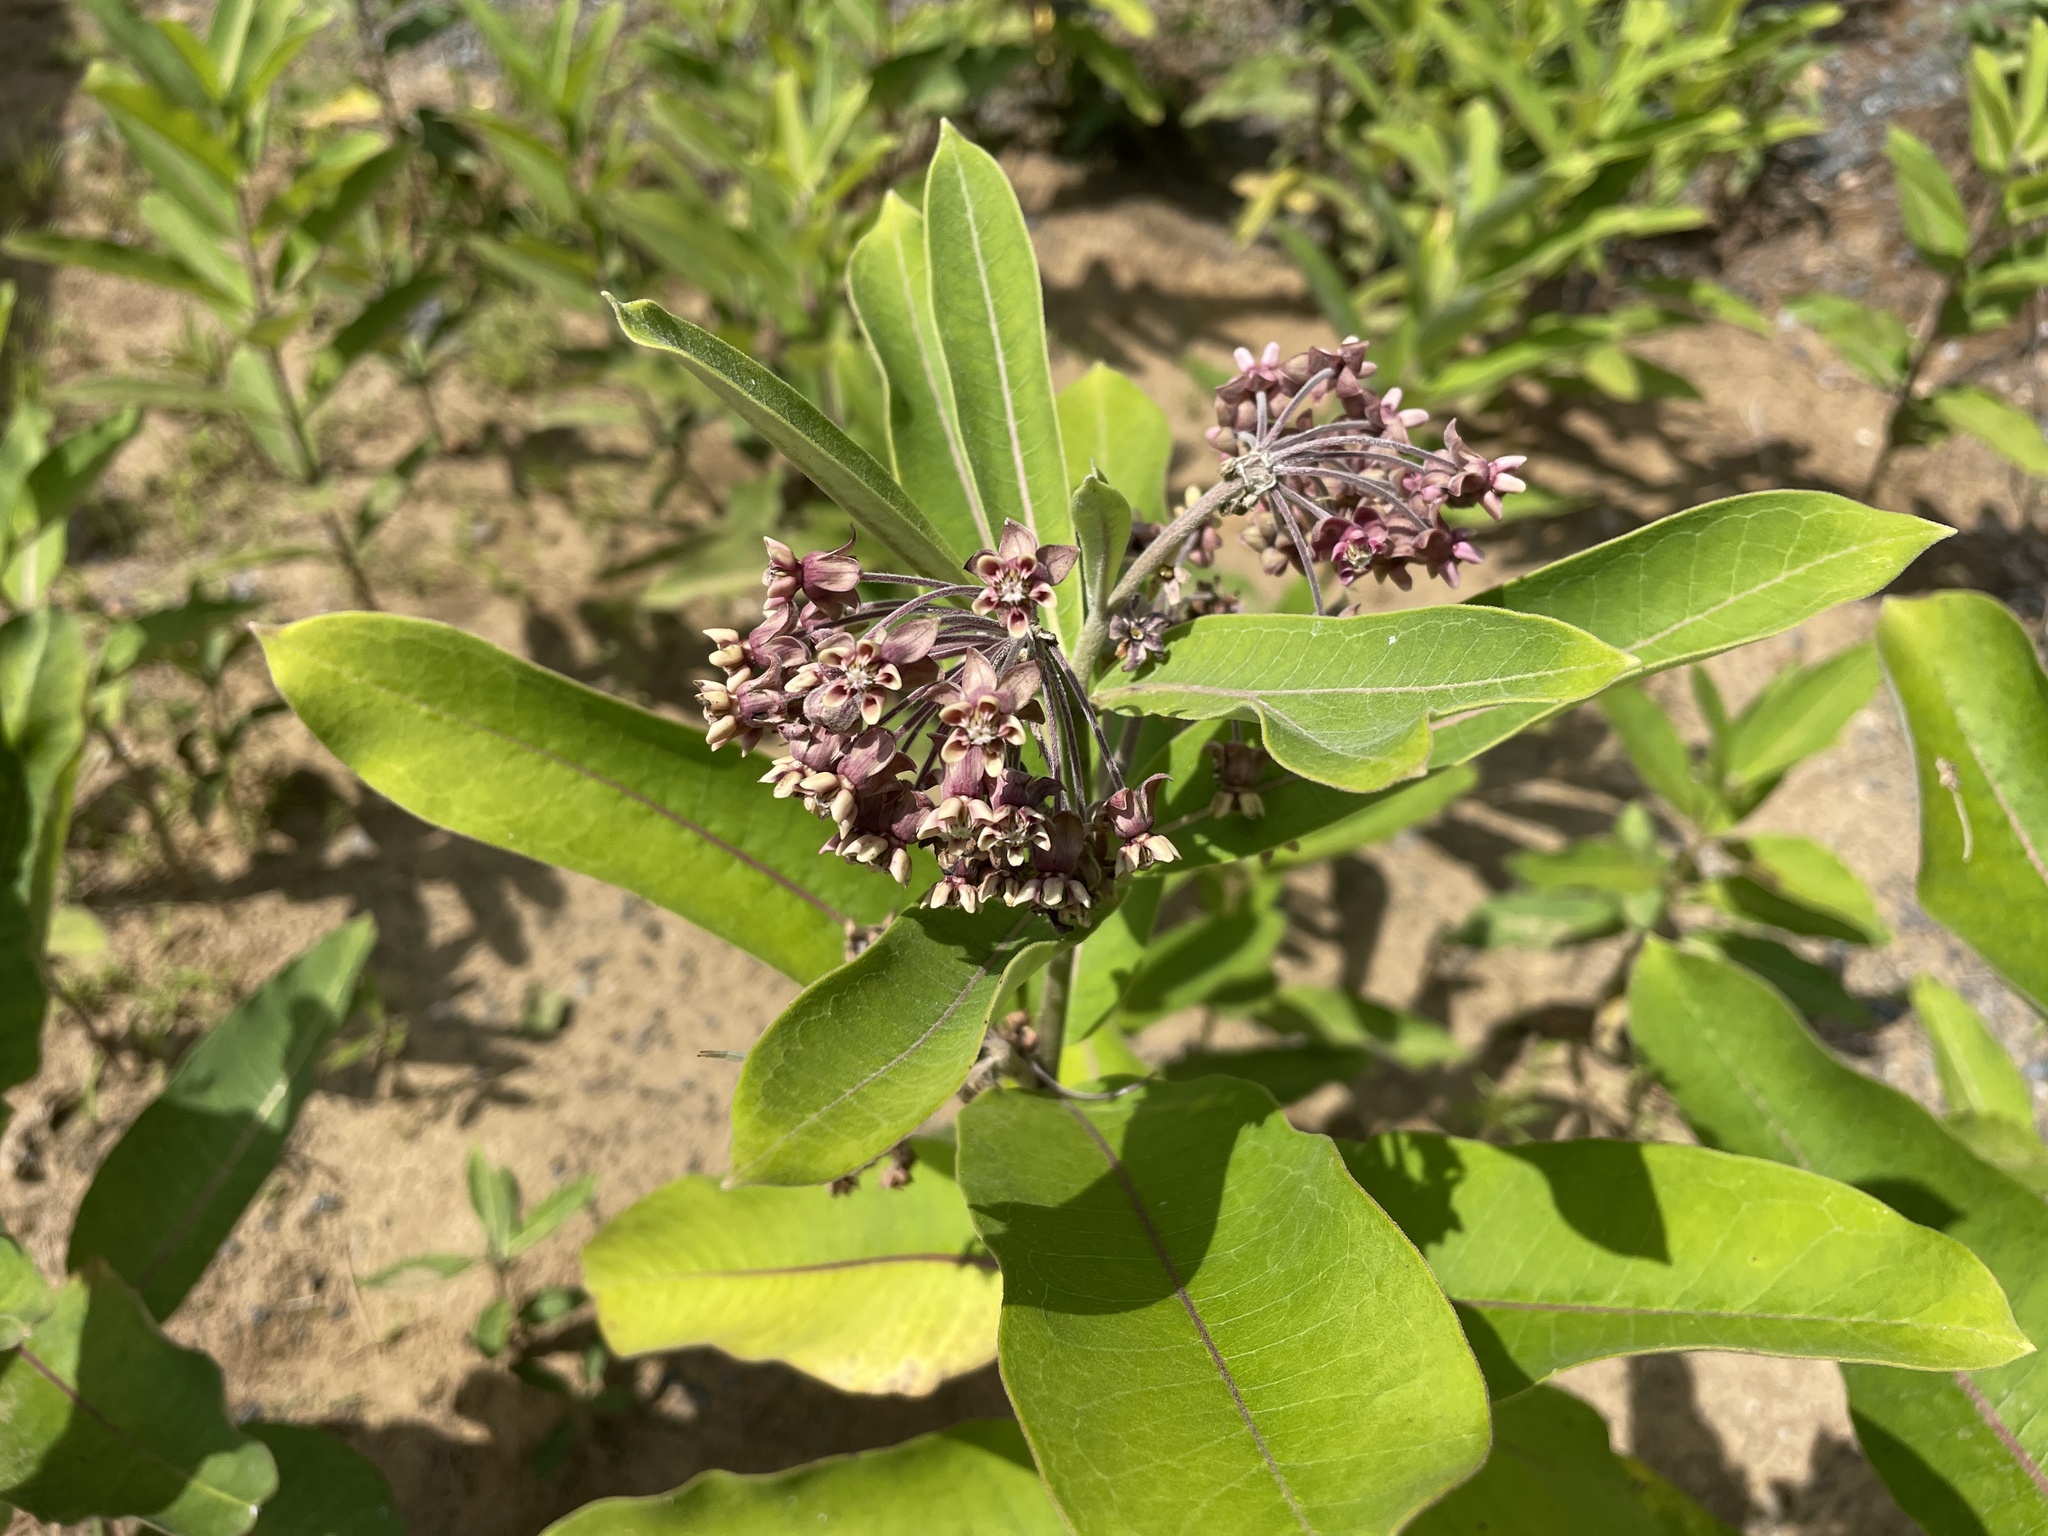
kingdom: Plantae
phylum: Tracheophyta
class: Magnoliopsida
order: Gentianales
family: Apocynaceae
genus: Asclepias
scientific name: Asclepias syriaca
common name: Common milkweed
